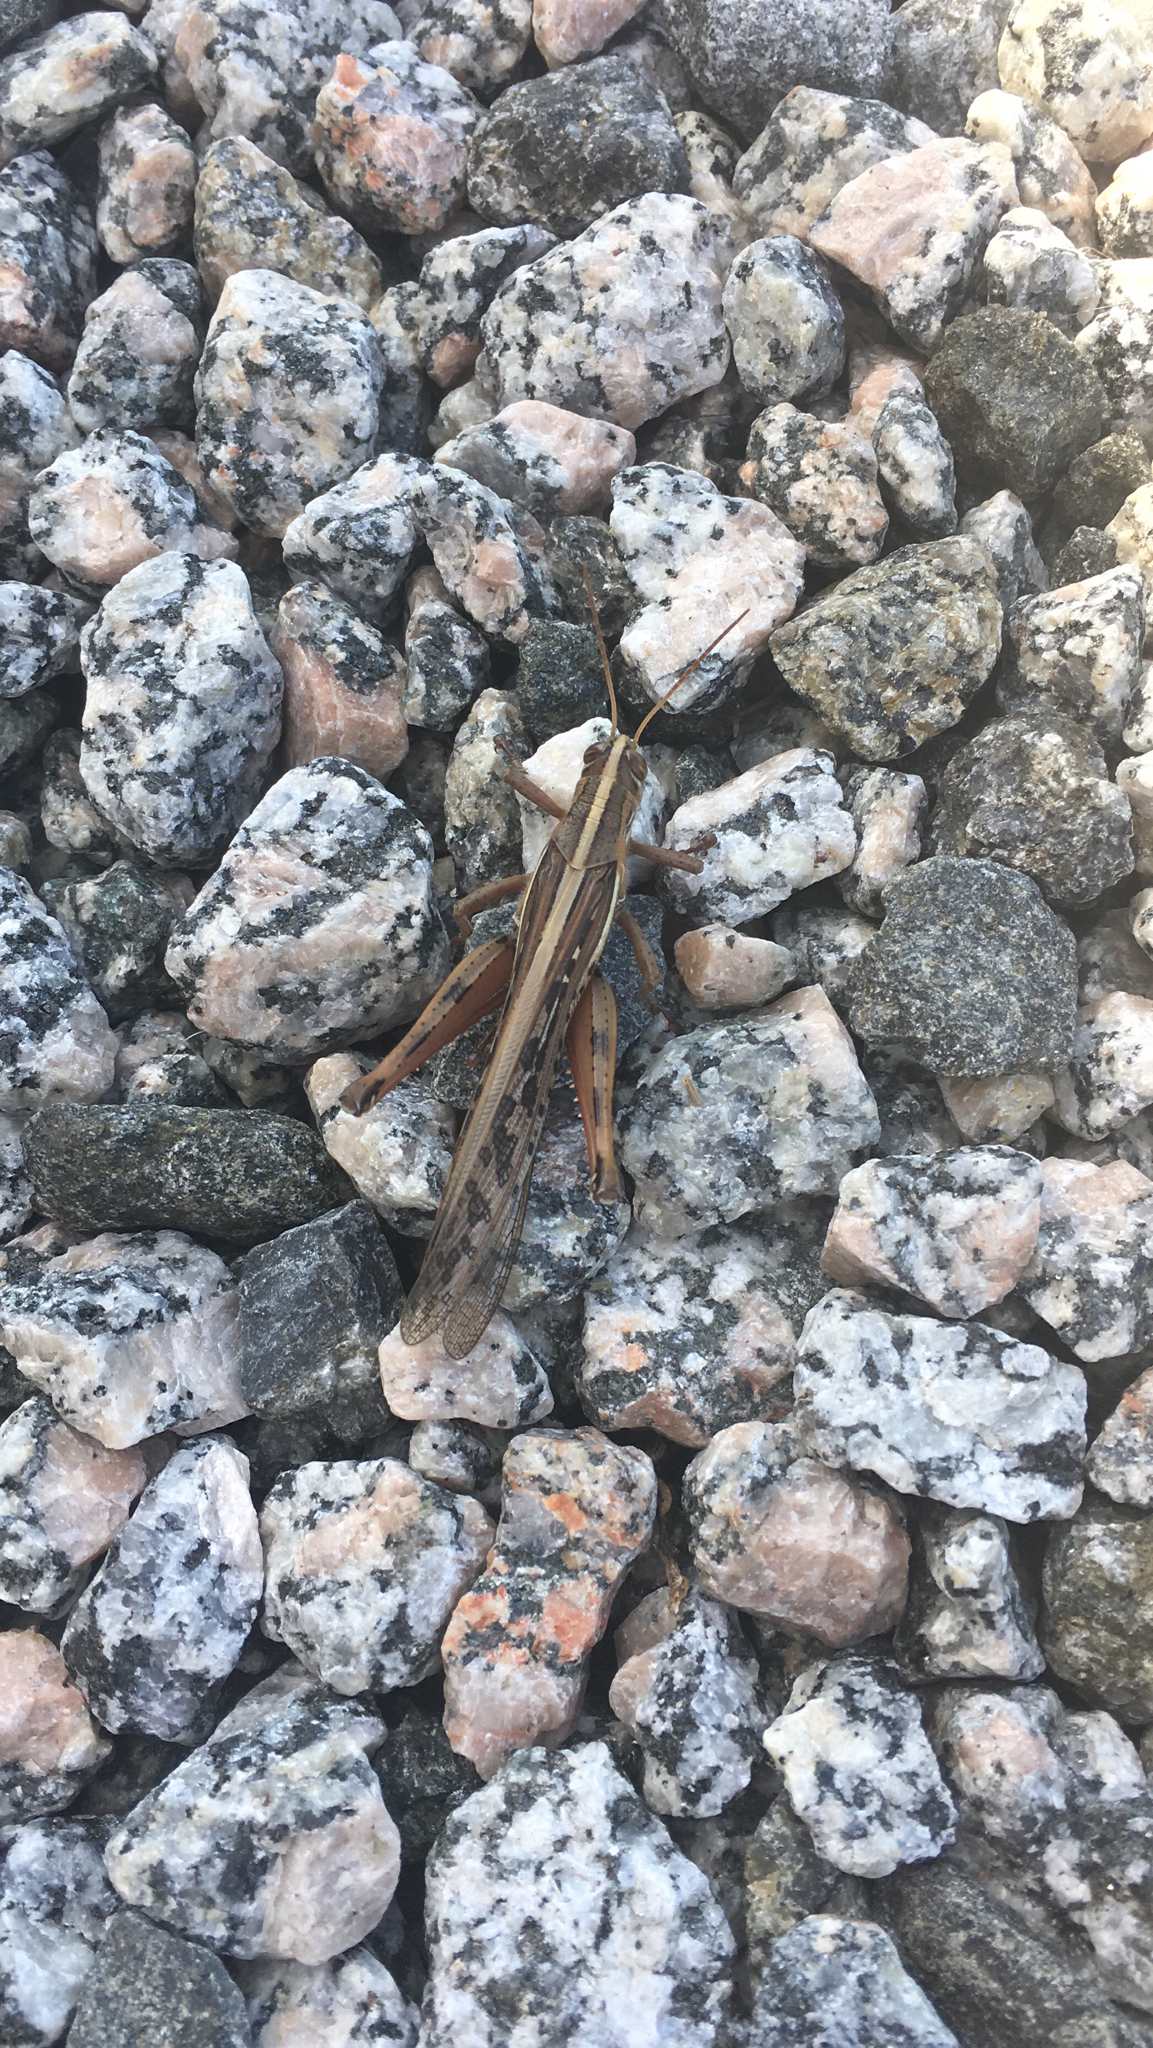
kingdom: Animalia
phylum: Arthropoda
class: Insecta
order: Orthoptera
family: Acrididae
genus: Schistocerca
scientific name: Schistocerca americana
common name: American bird locust
